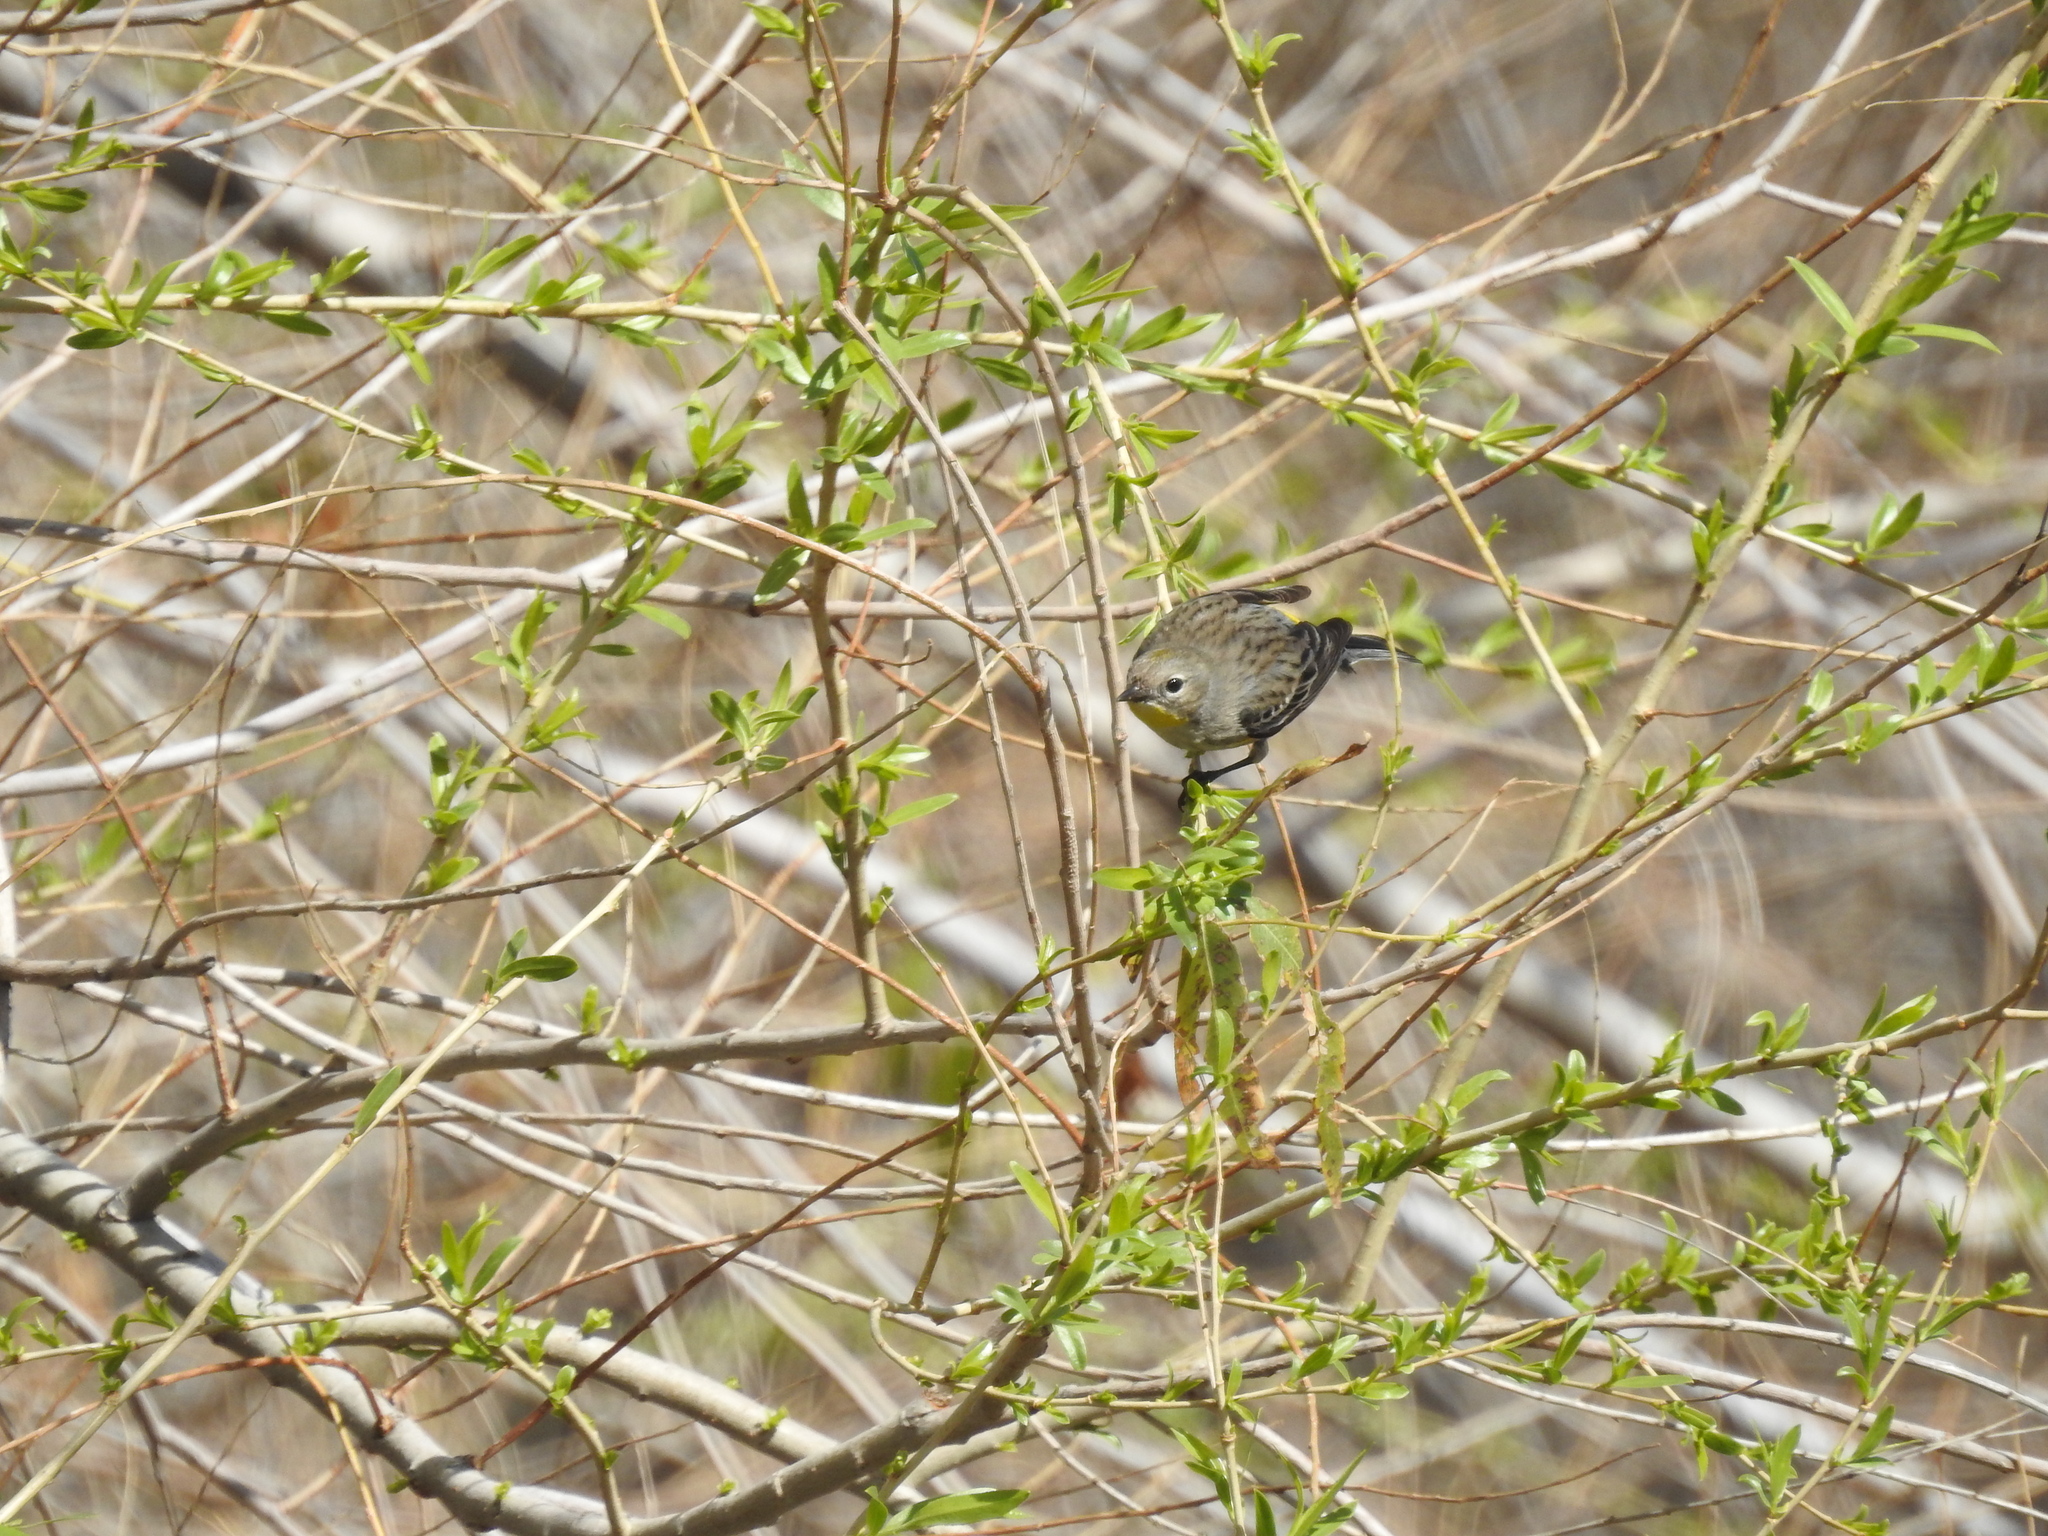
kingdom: Animalia
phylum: Chordata
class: Aves
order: Passeriformes
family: Parulidae
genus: Setophaga
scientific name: Setophaga coronata
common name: Myrtle warbler
